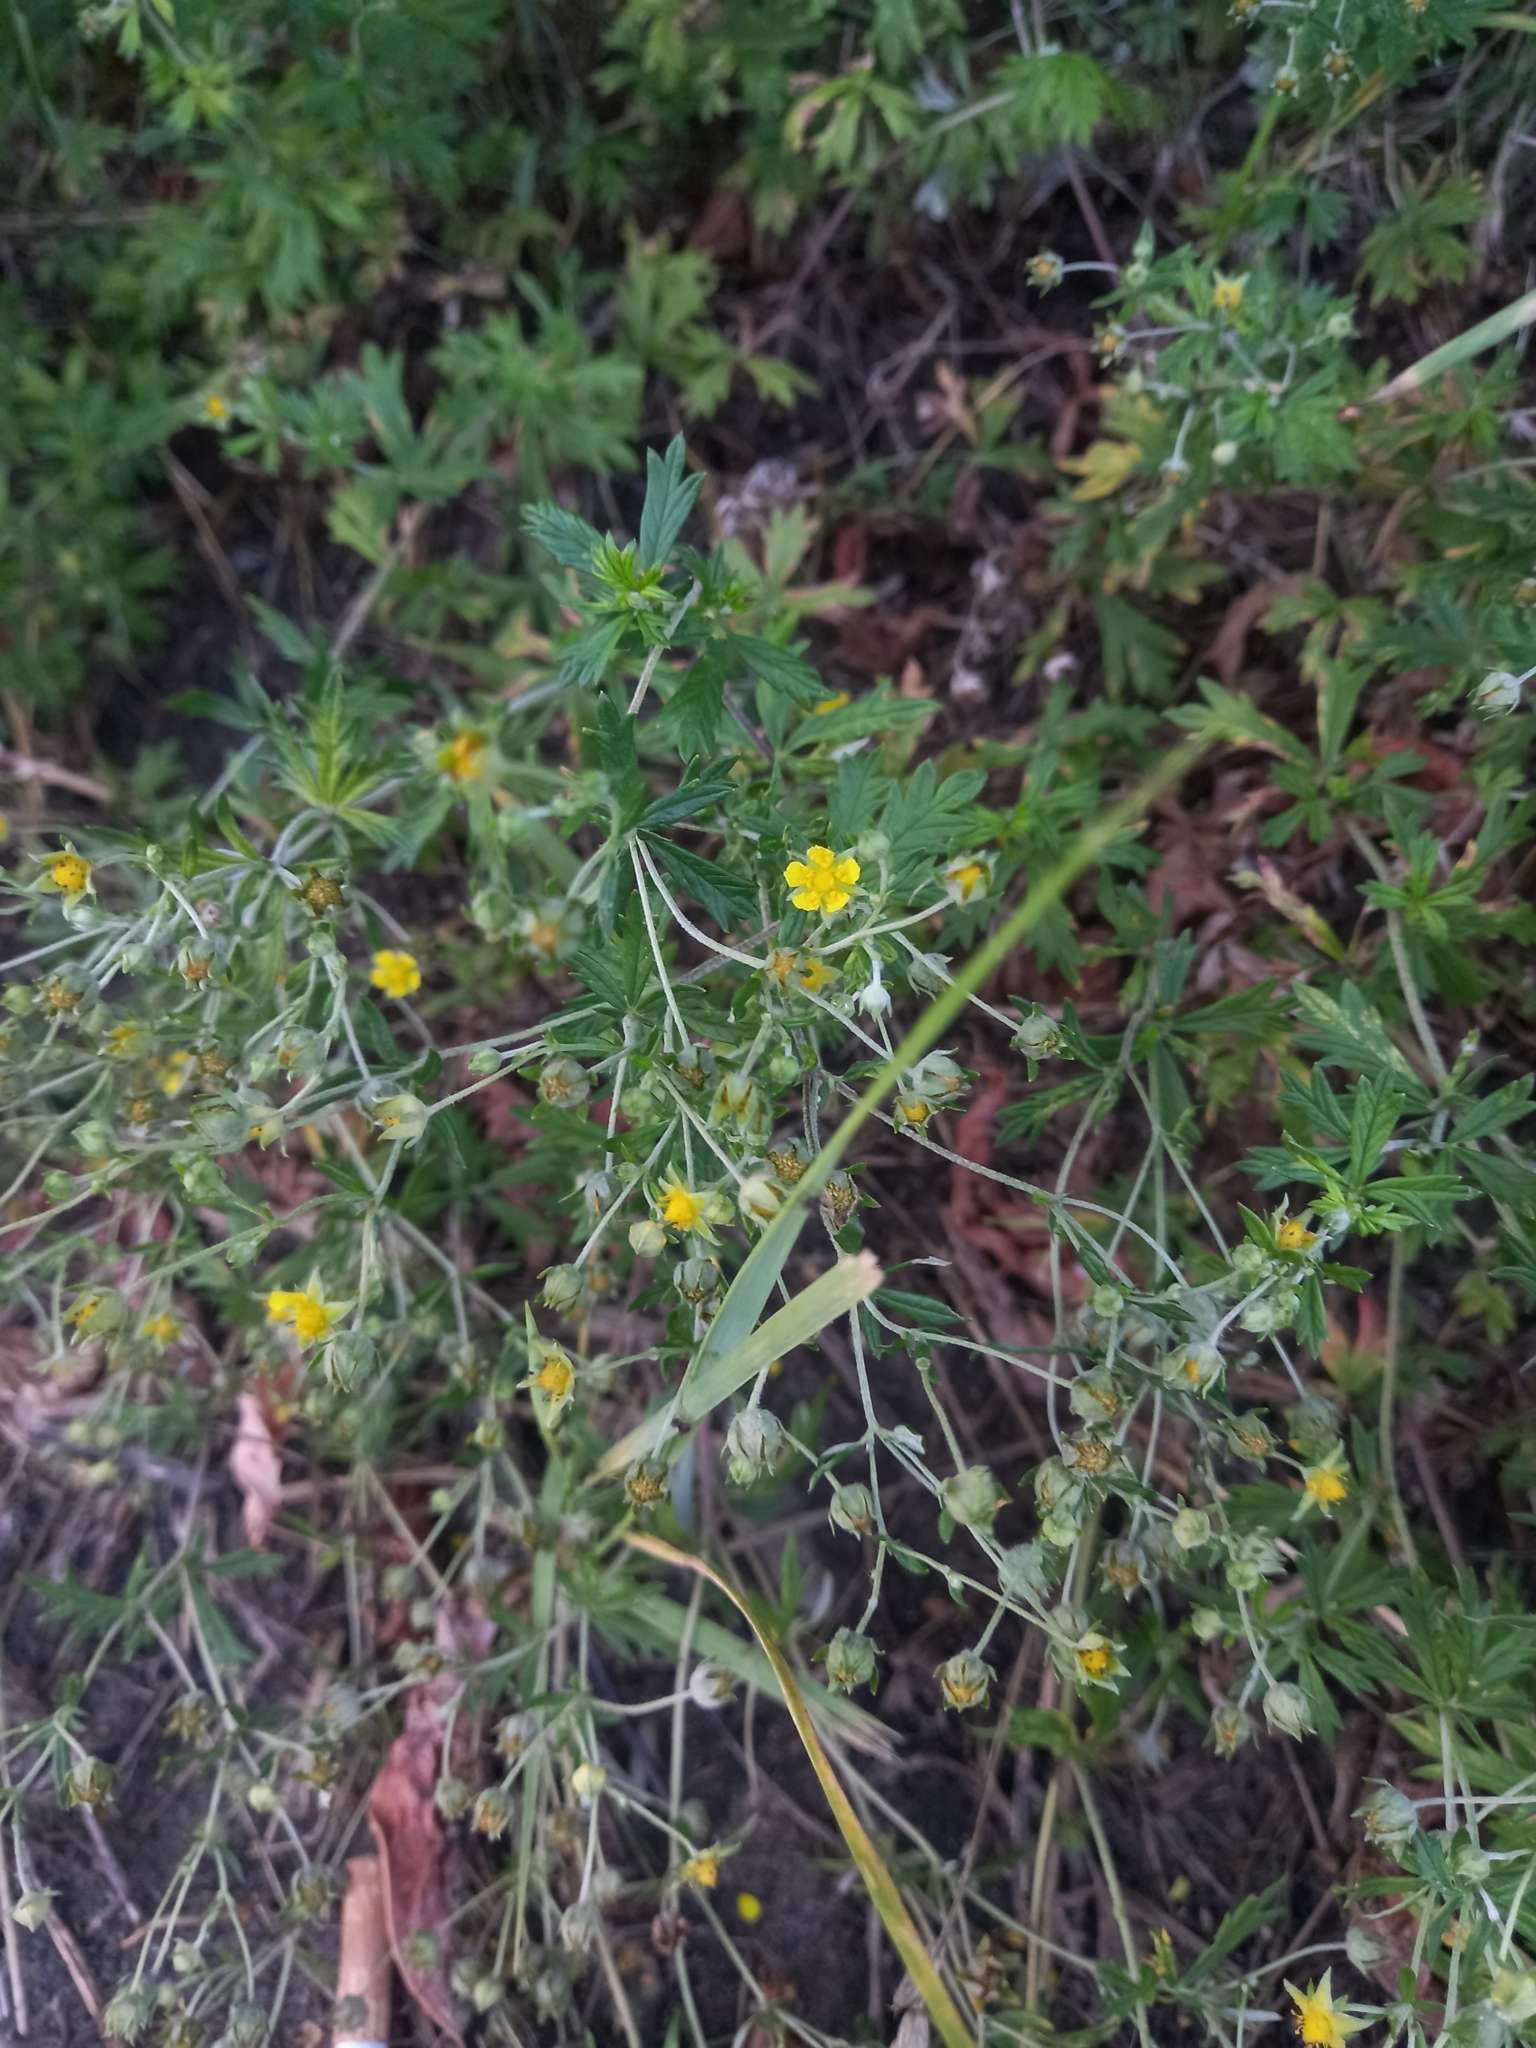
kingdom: Plantae
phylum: Tracheophyta
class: Magnoliopsida
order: Rosales
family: Rosaceae
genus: Potentilla
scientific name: Potentilla argentea
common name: Hoary cinquefoil
